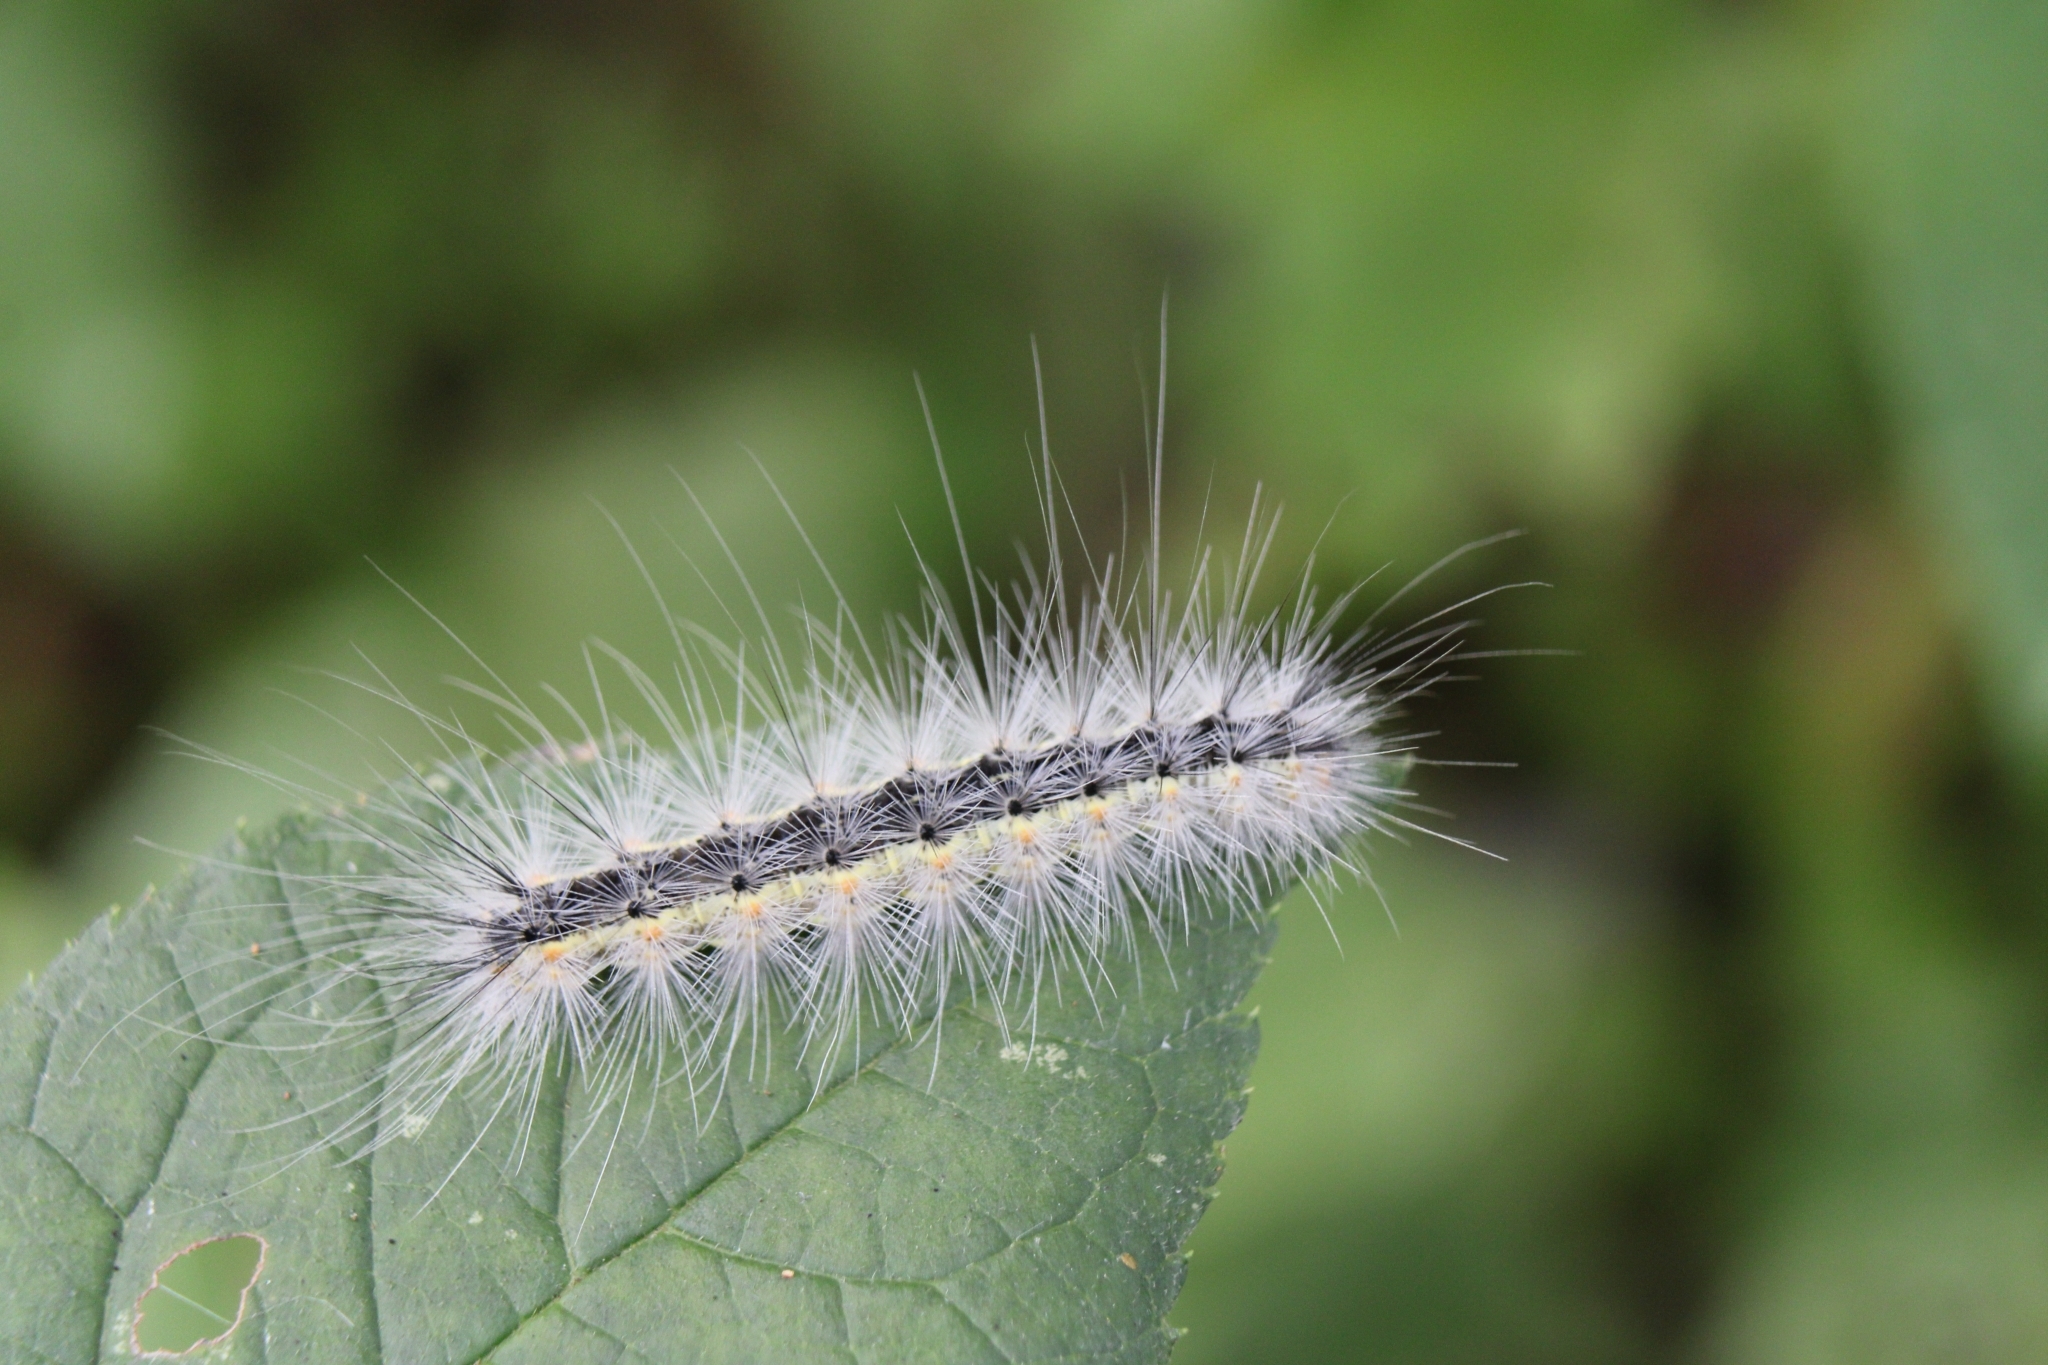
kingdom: Animalia
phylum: Arthropoda
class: Insecta
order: Lepidoptera
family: Erebidae
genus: Hyphantria
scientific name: Hyphantria cunea
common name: American white moth
